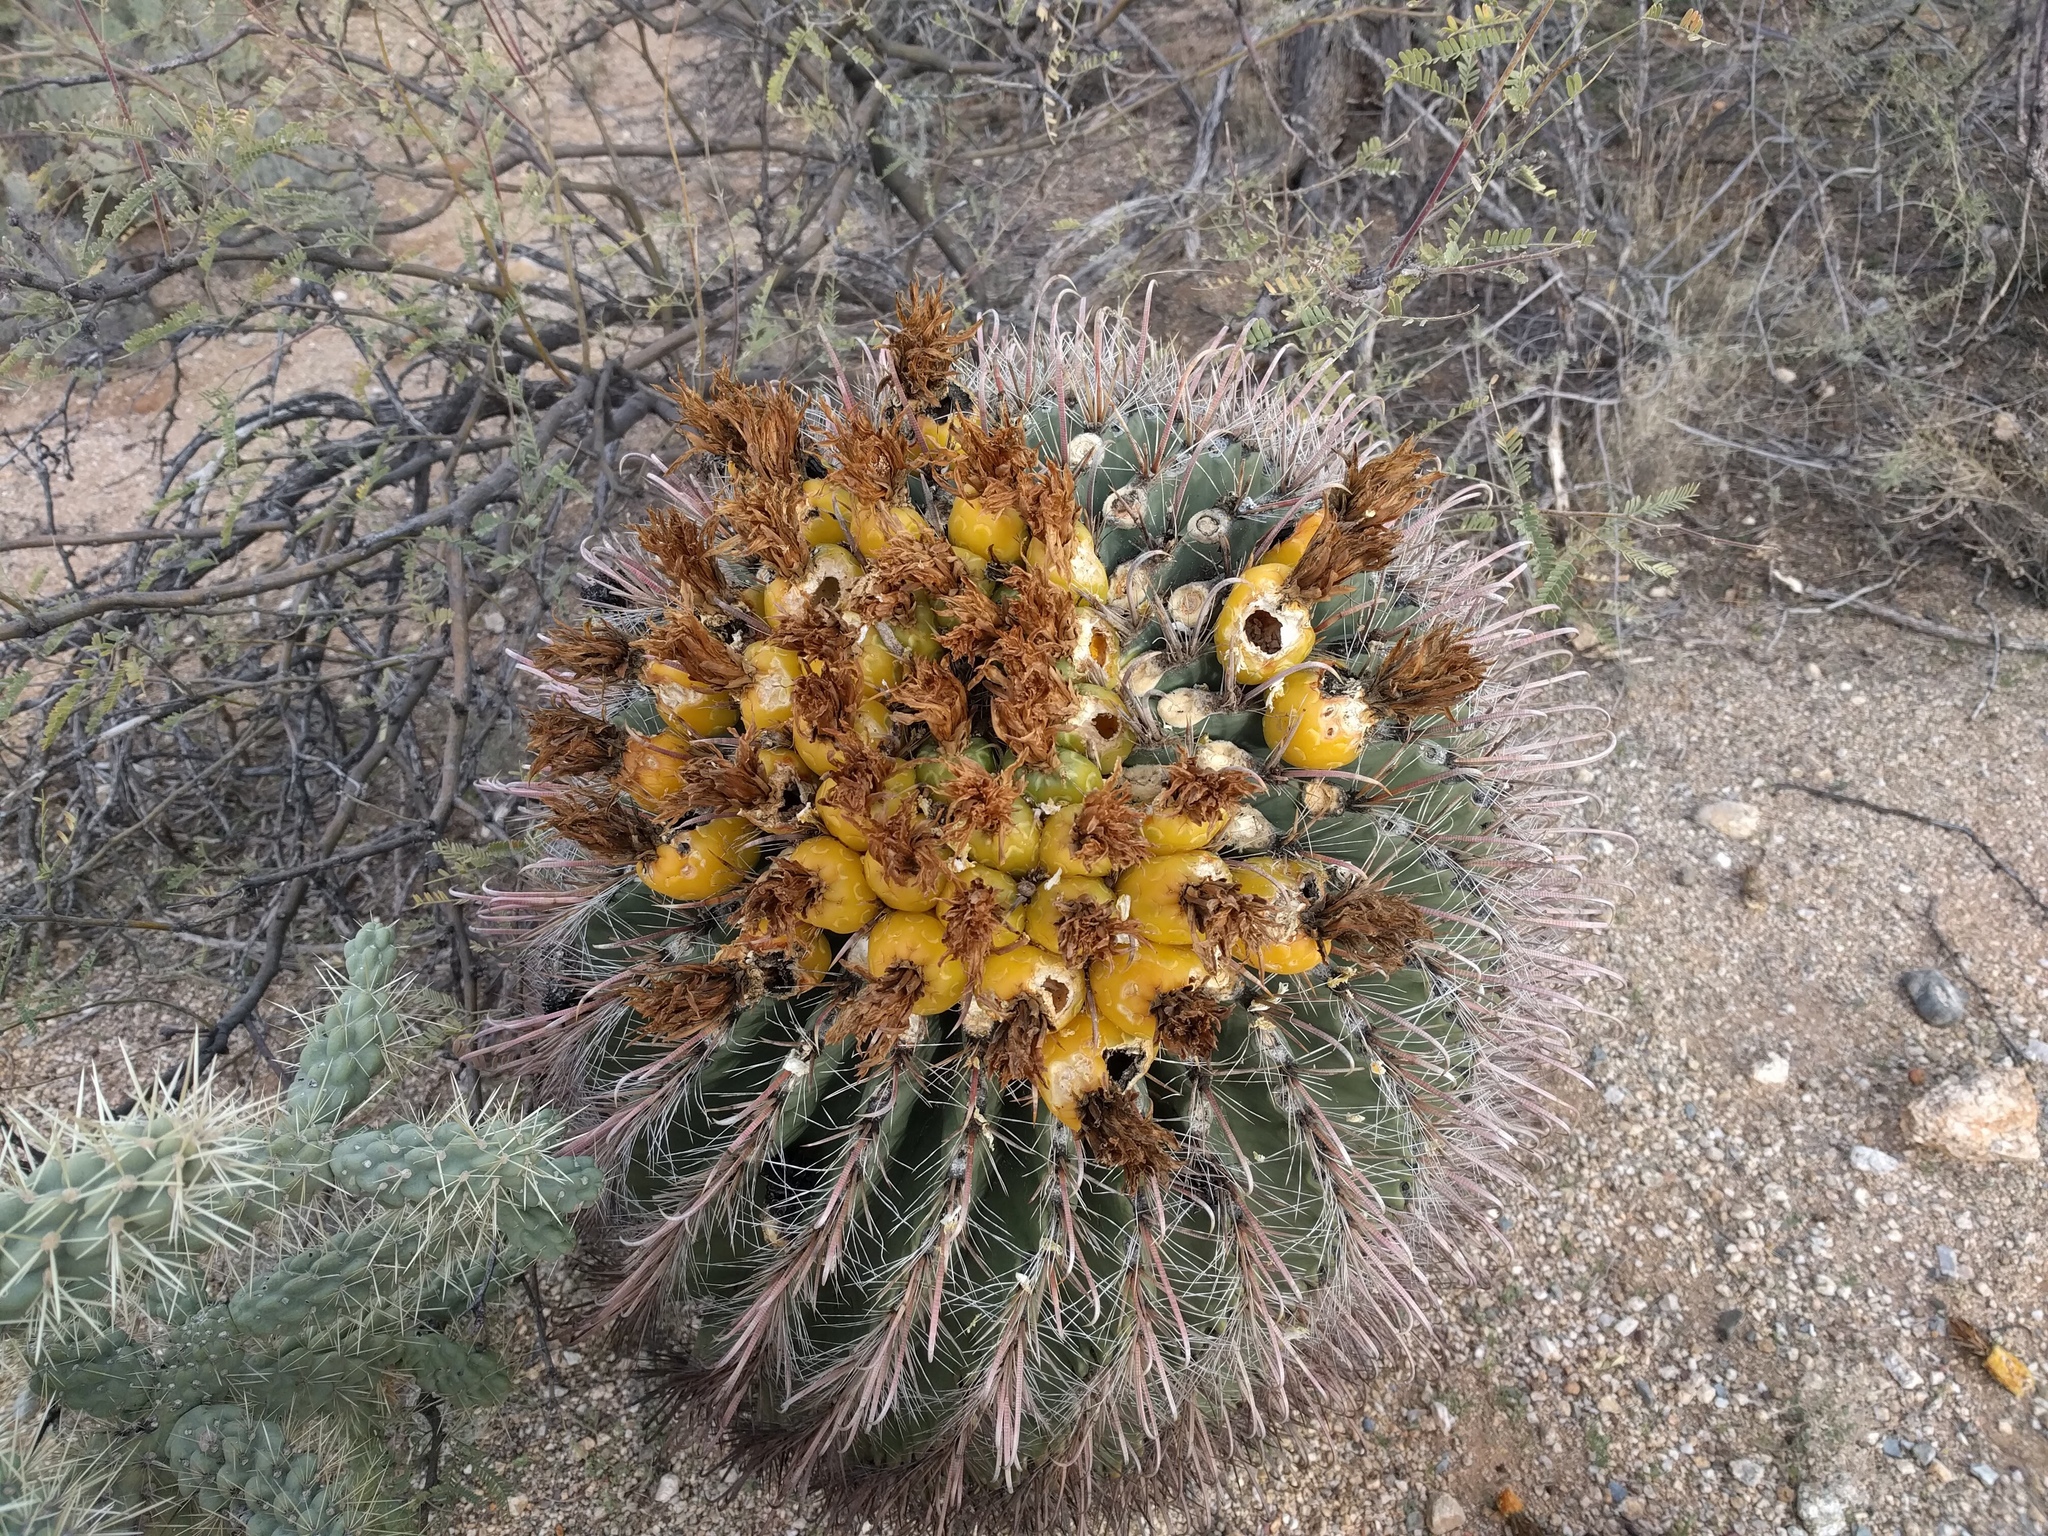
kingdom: Plantae
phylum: Tracheophyta
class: Magnoliopsida
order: Caryophyllales
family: Cactaceae
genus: Ferocactus
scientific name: Ferocactus wislizeni
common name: Candy barrel cactus
